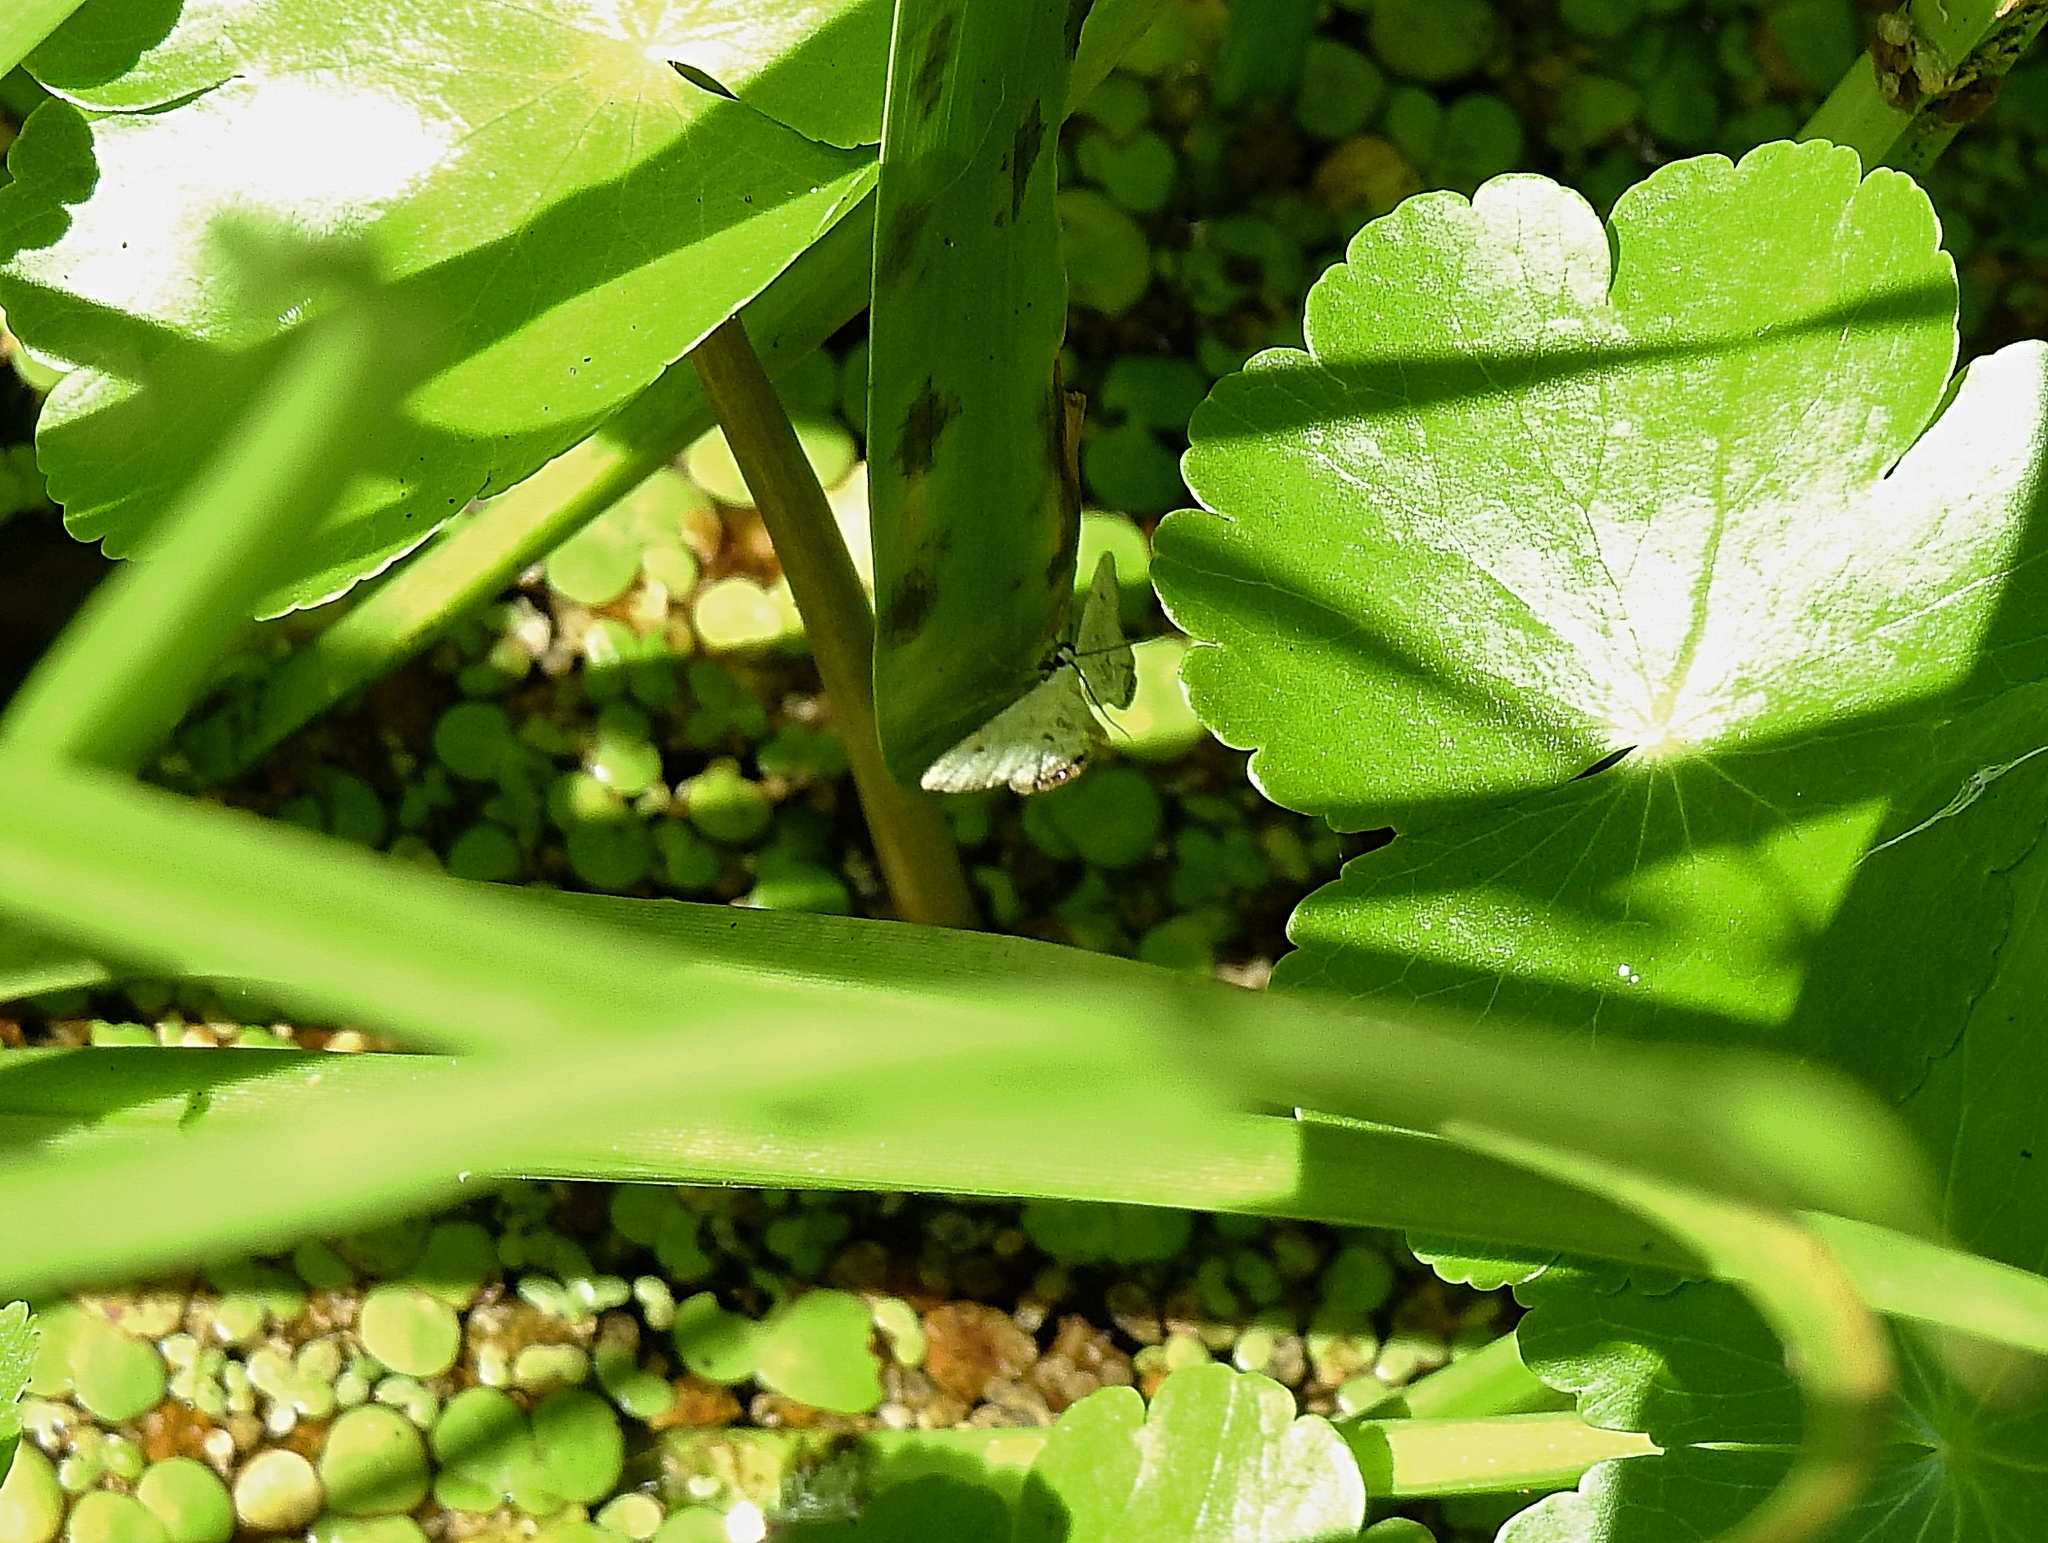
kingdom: Animalia
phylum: Arthropoda
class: Insecta
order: Lepidoptera
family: Crambidae
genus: Cataclysta
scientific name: Cataclysta lemnata
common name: Small china-mark
